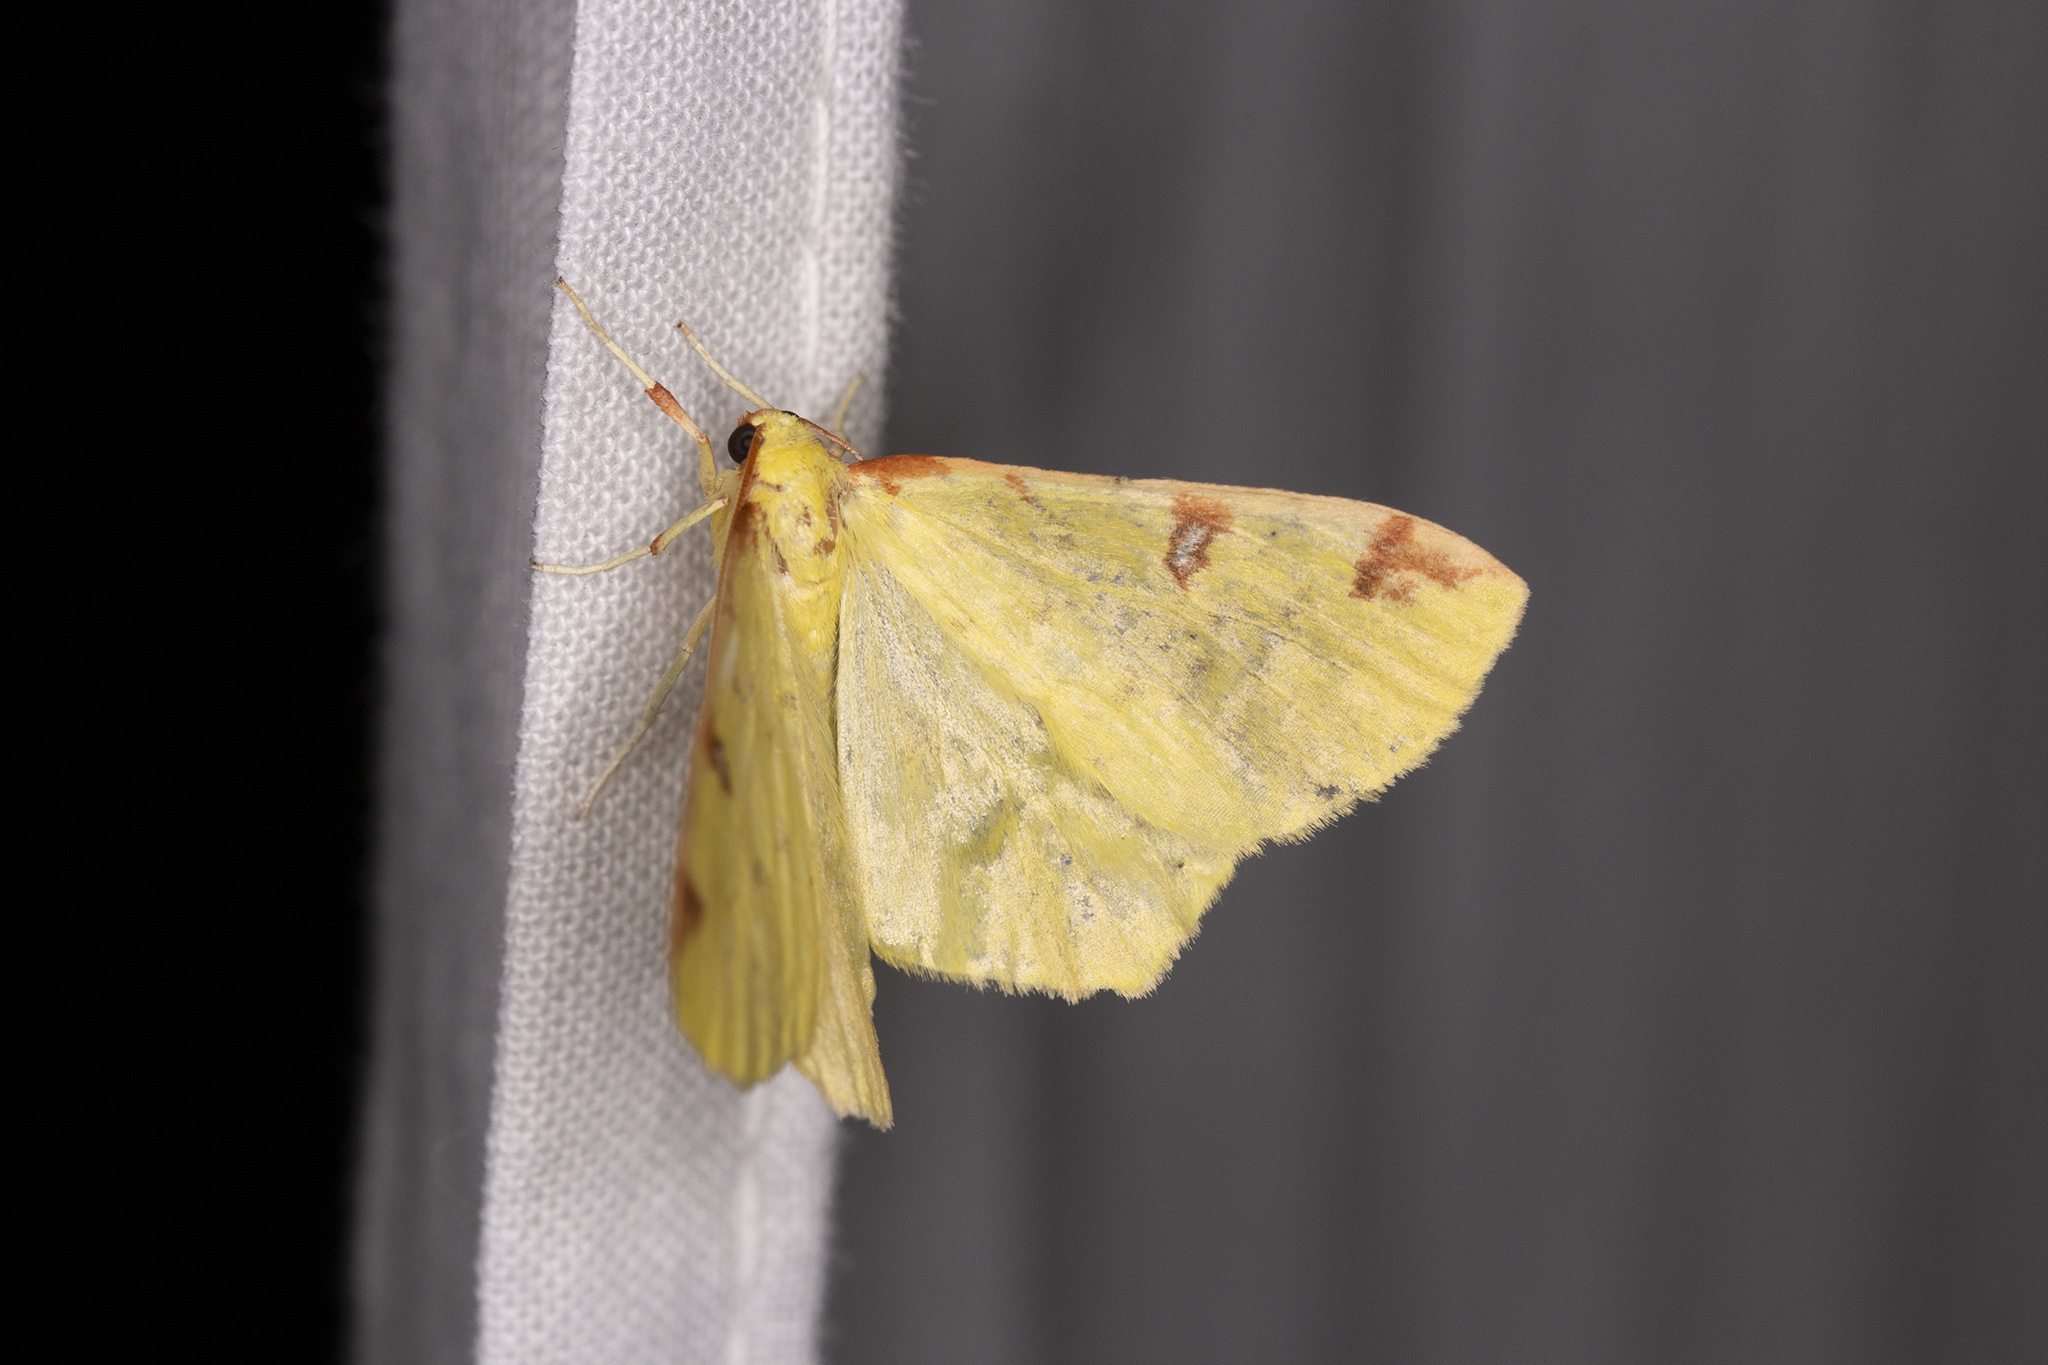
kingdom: Animalia
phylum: Arthropoda
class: Insecta
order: Lepidoptera
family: Geometridae
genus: Opisthograptis
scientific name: Opisthograptis luteolata
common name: Brimstone moth
